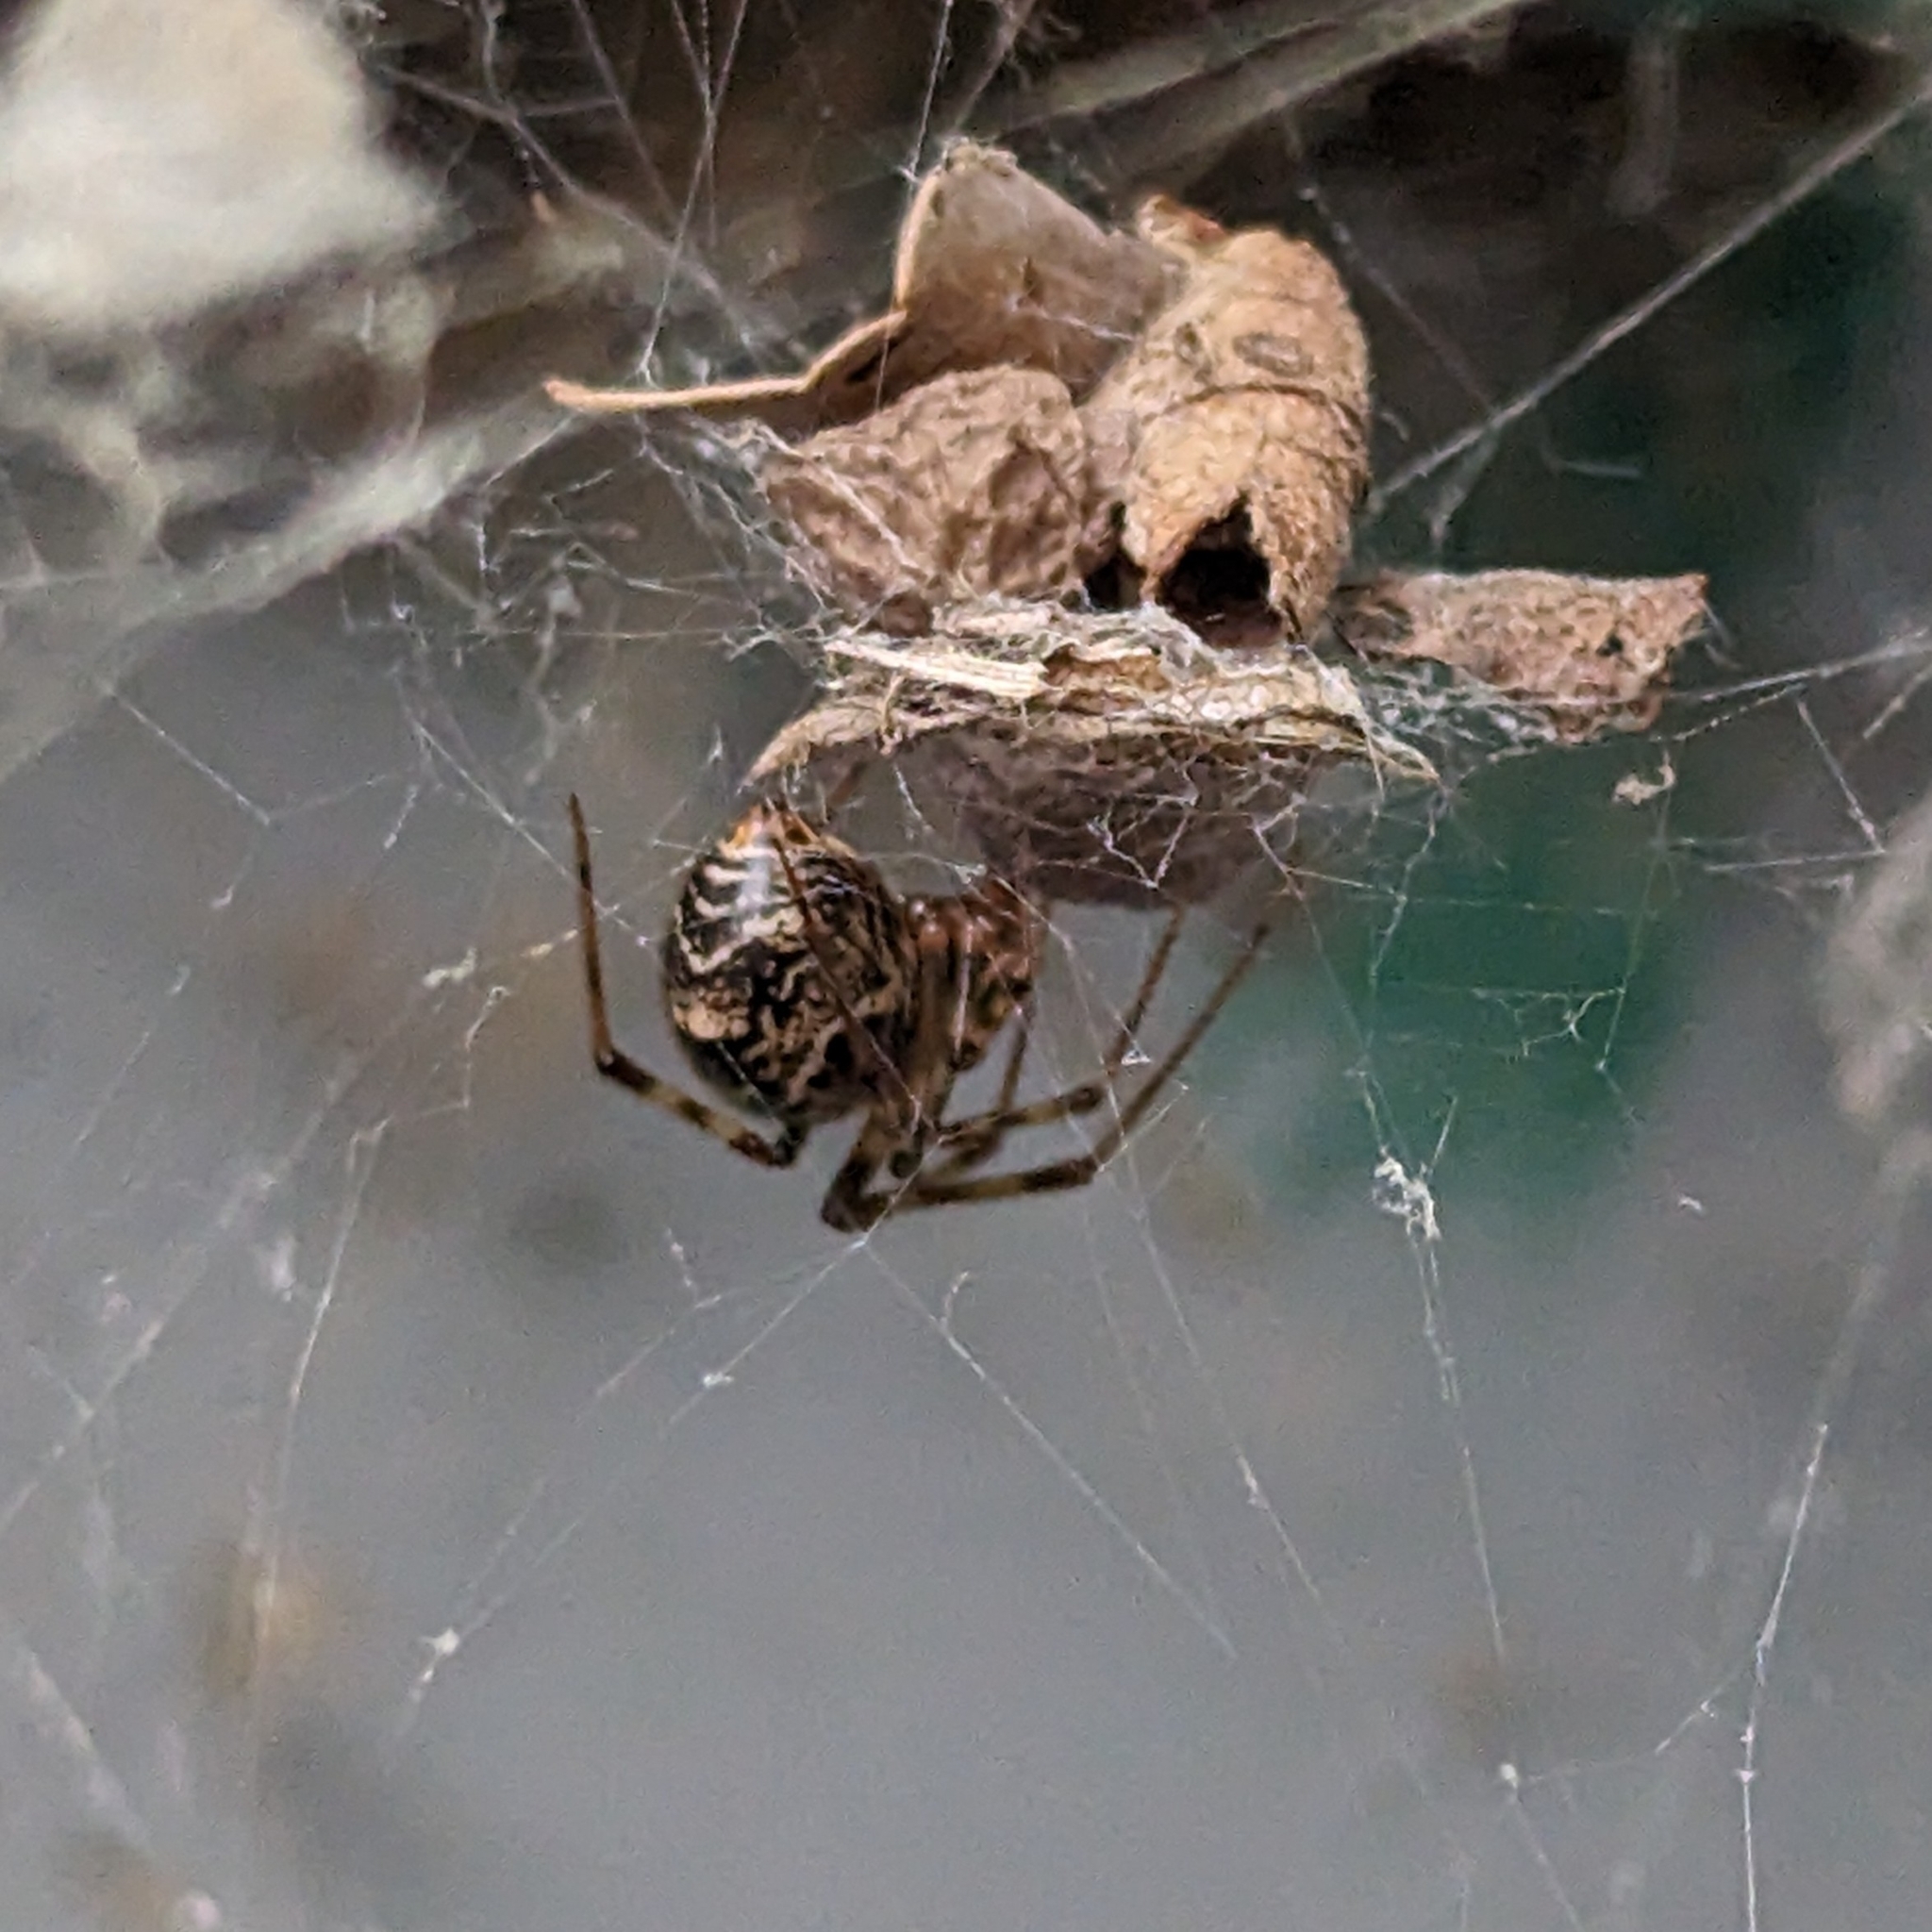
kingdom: Animalia
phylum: Arthropoda
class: Arachnida
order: Araneae
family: Theridiidae
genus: Parasteatoda
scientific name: Parasteatoda tepidariorum
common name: Common house spider
